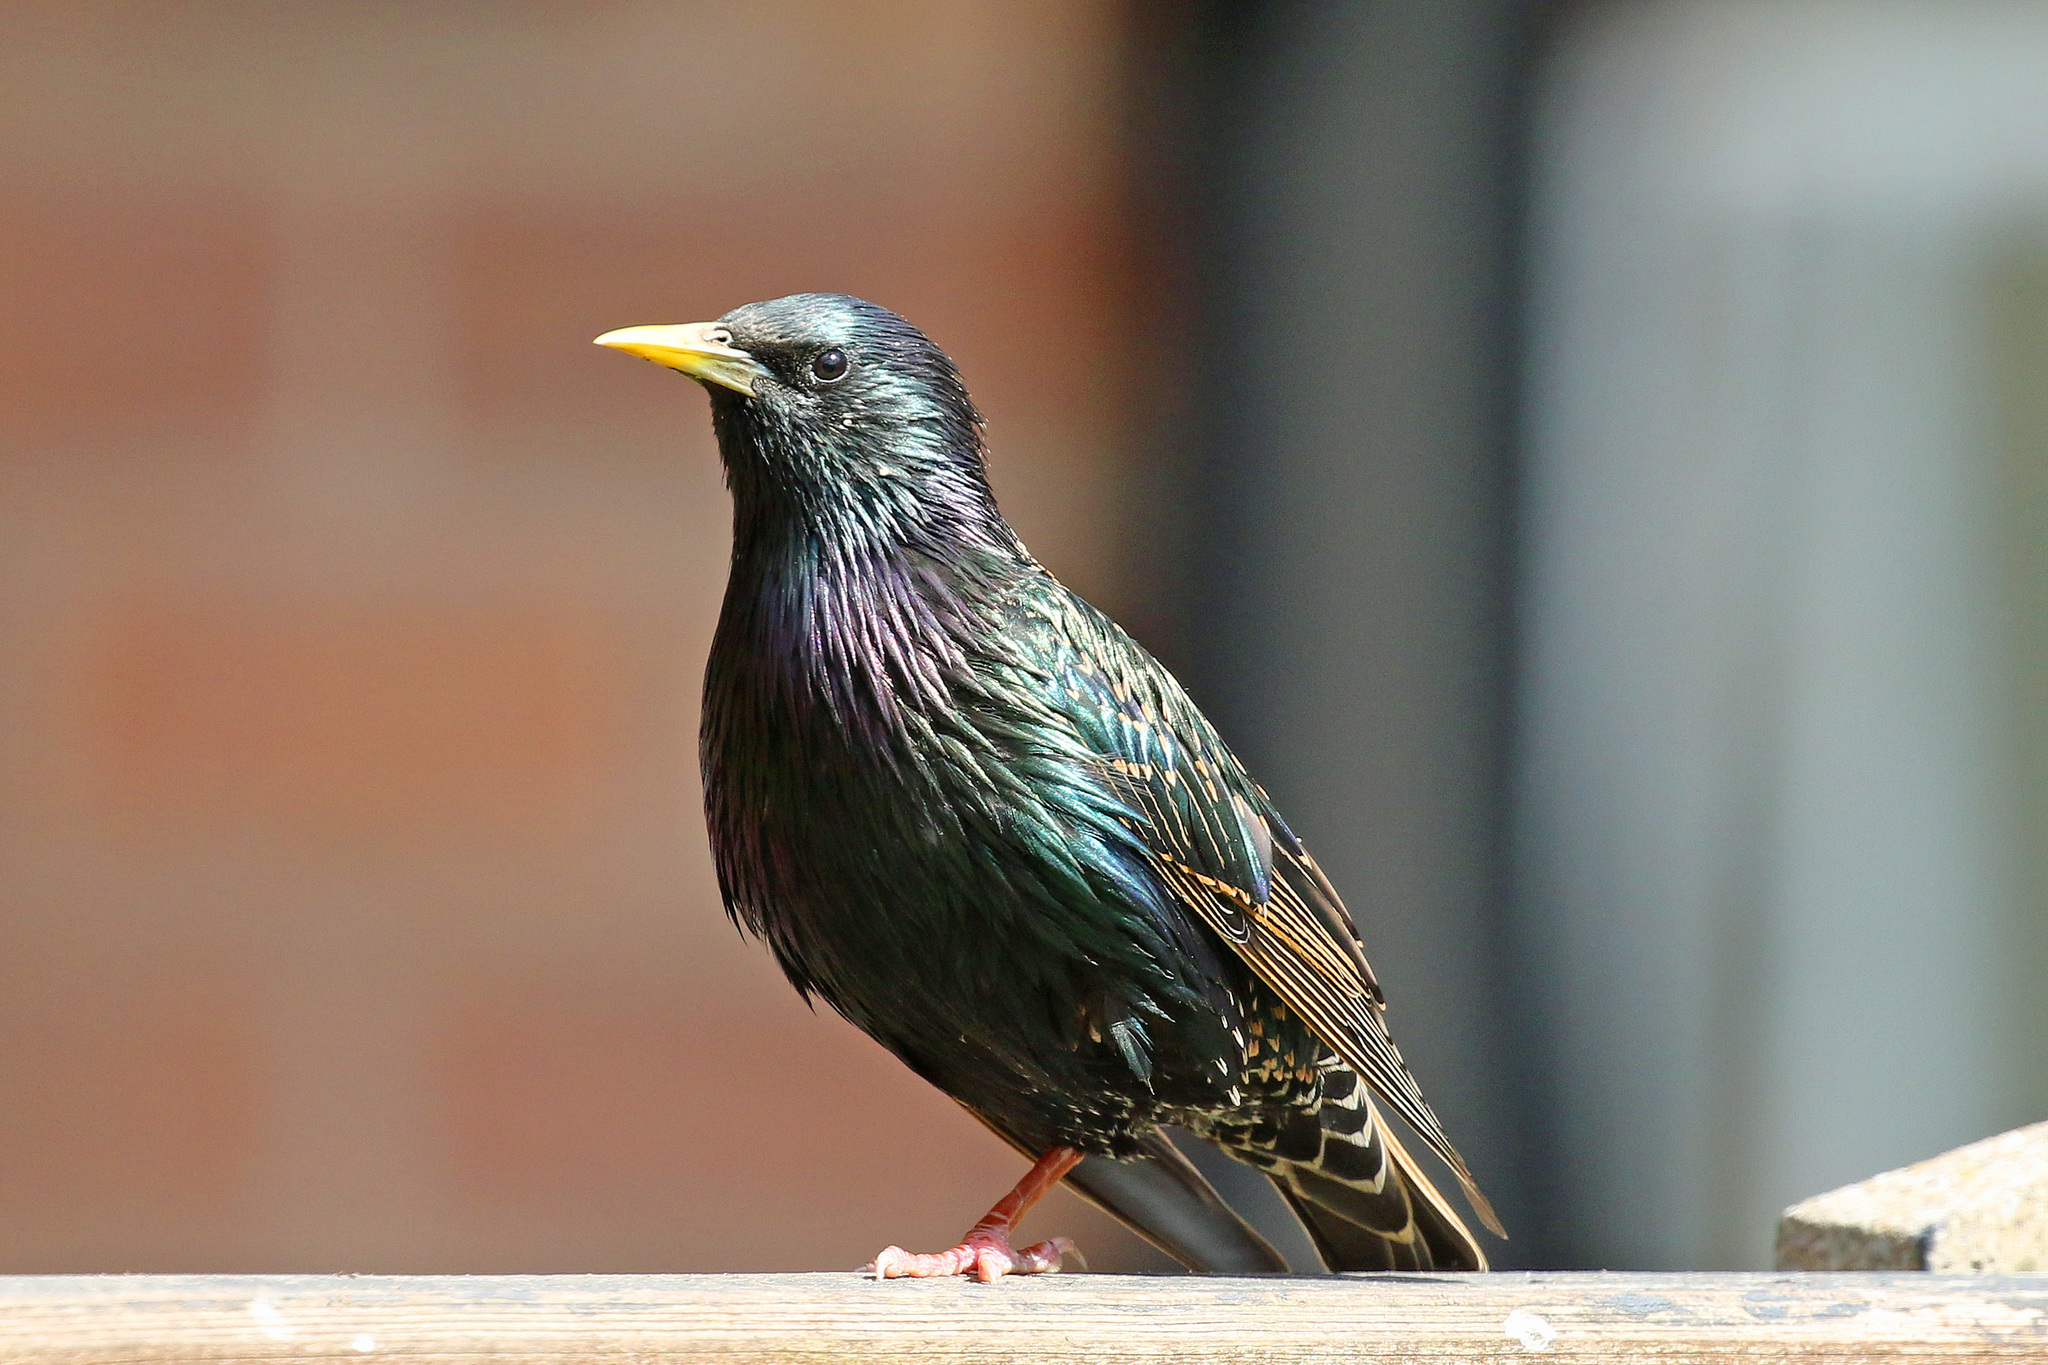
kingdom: Animalia
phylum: Chordata
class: Aves
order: Passeriformes
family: Sturnidae
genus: Sturnus
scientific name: Sturnus vulgaris
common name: Common starling
